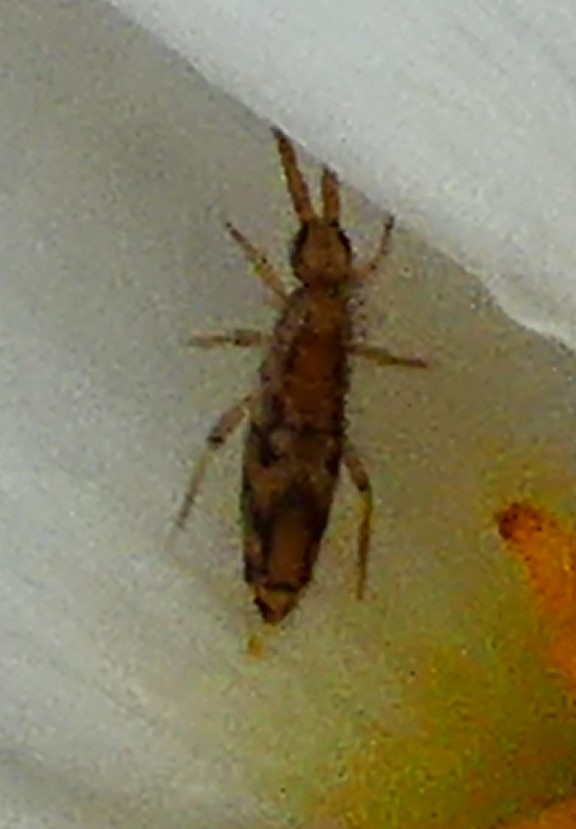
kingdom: Animalia
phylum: Arthropoda
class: Collembola
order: Entomobryomorpha
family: Entomobryidae
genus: Entomobrya
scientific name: Entomobrya intermedia
